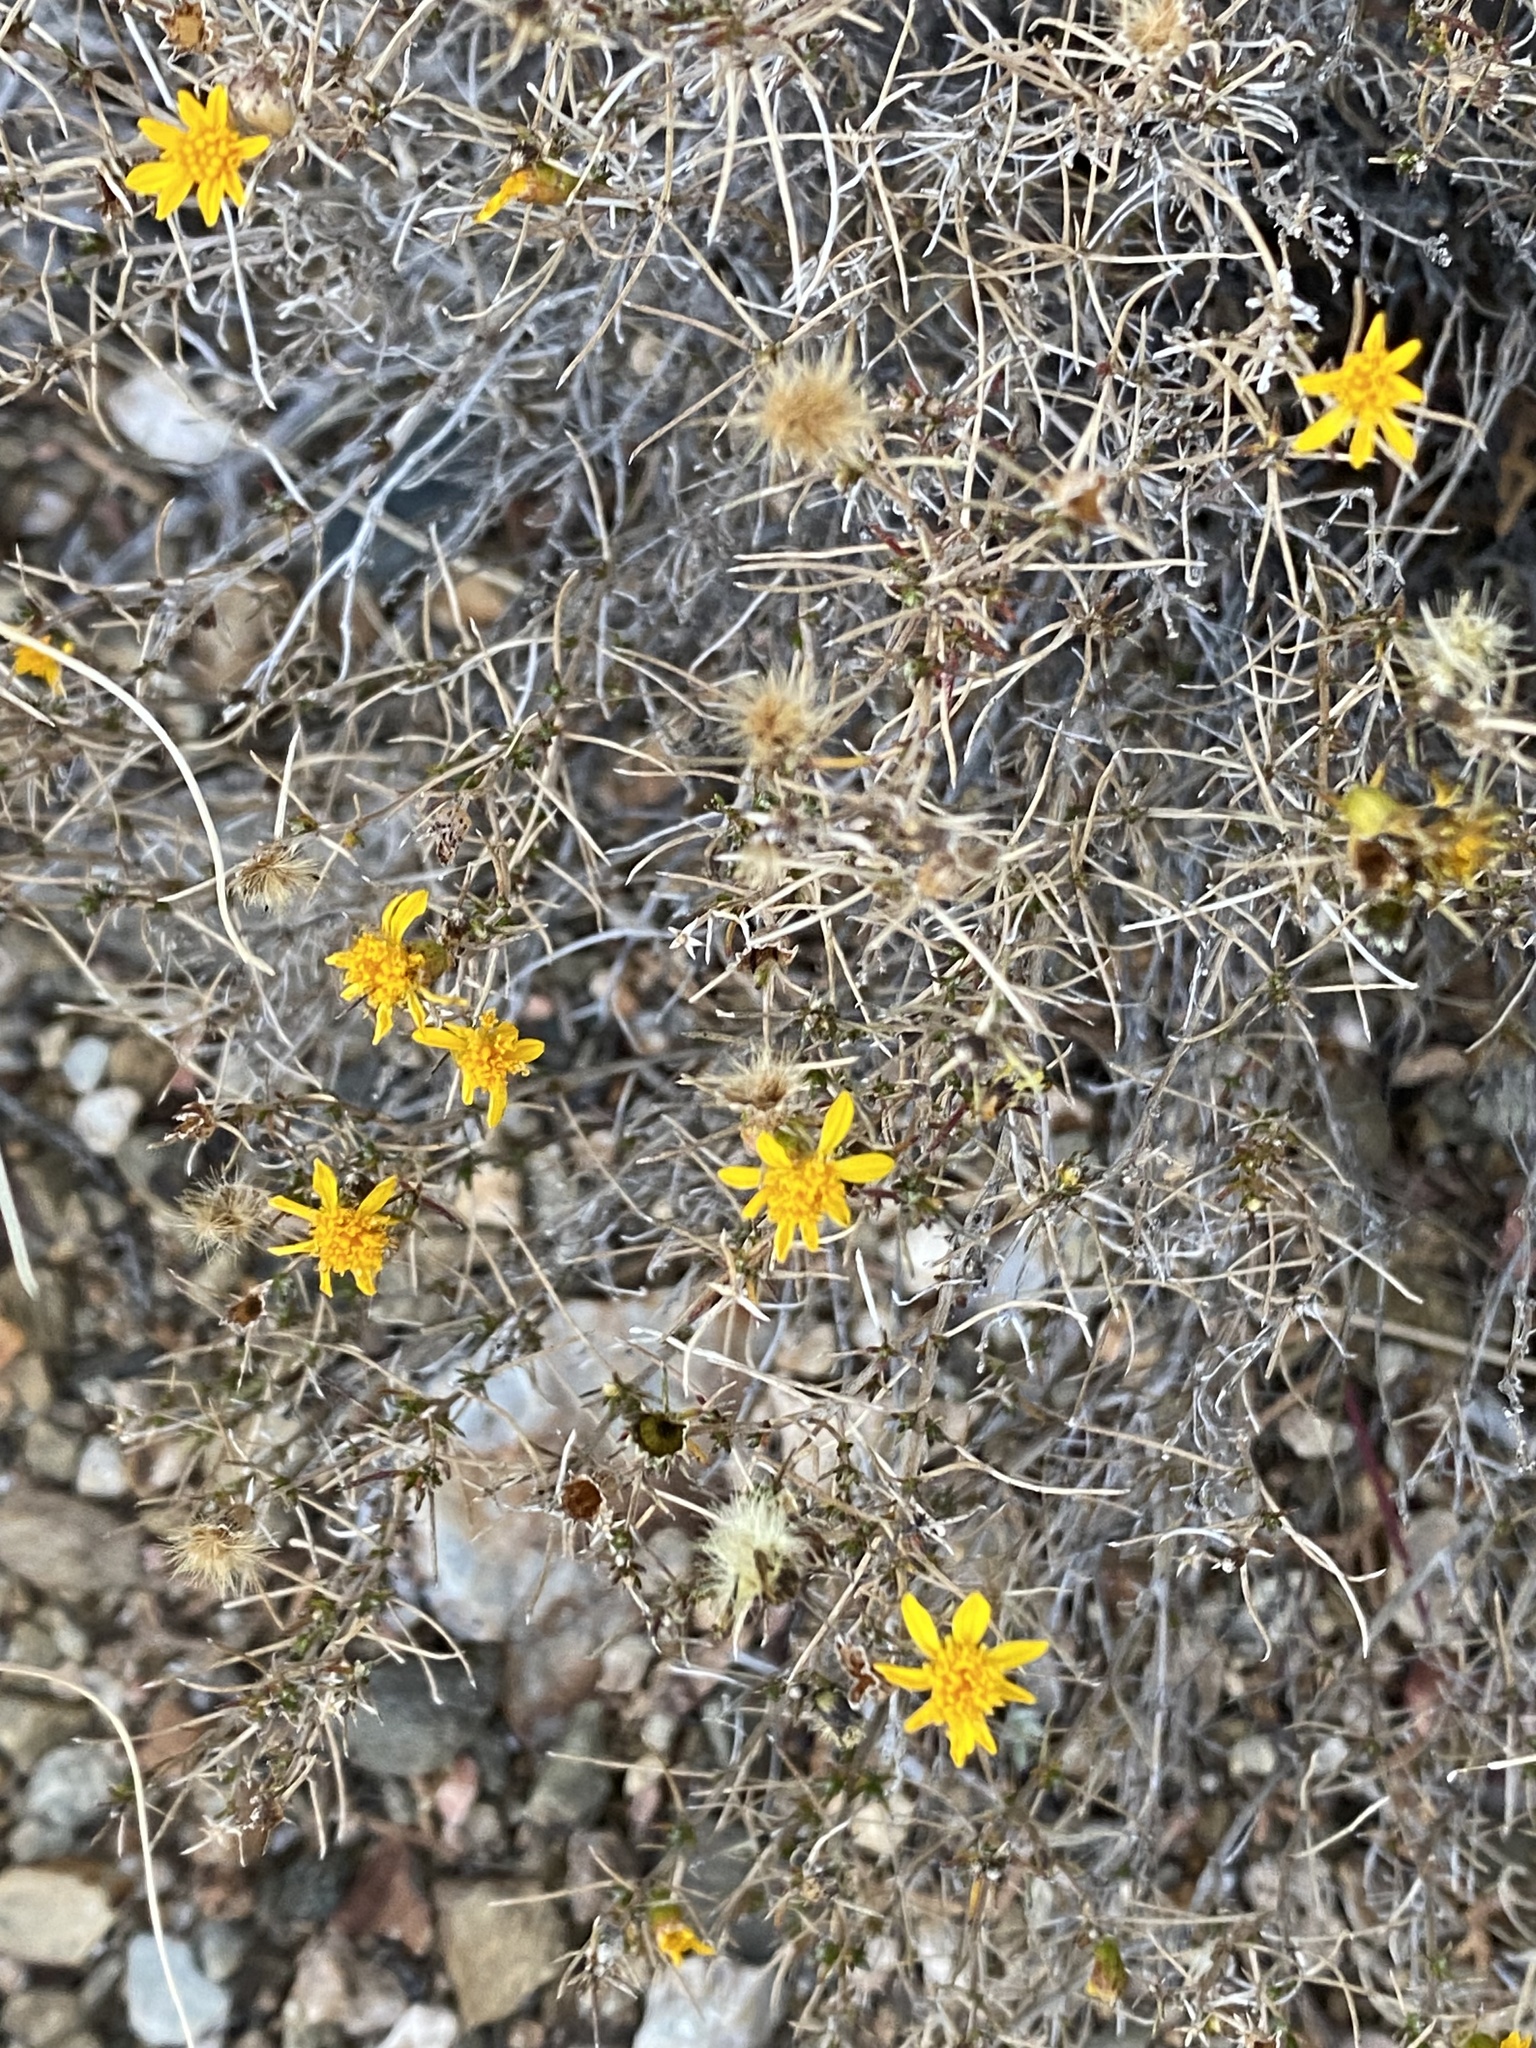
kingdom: Plantae
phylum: Tracheophyta
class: Magnoliopsida
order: Asterales
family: Asteraceae
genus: Thymophylla
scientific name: Thymophylla acerosa
